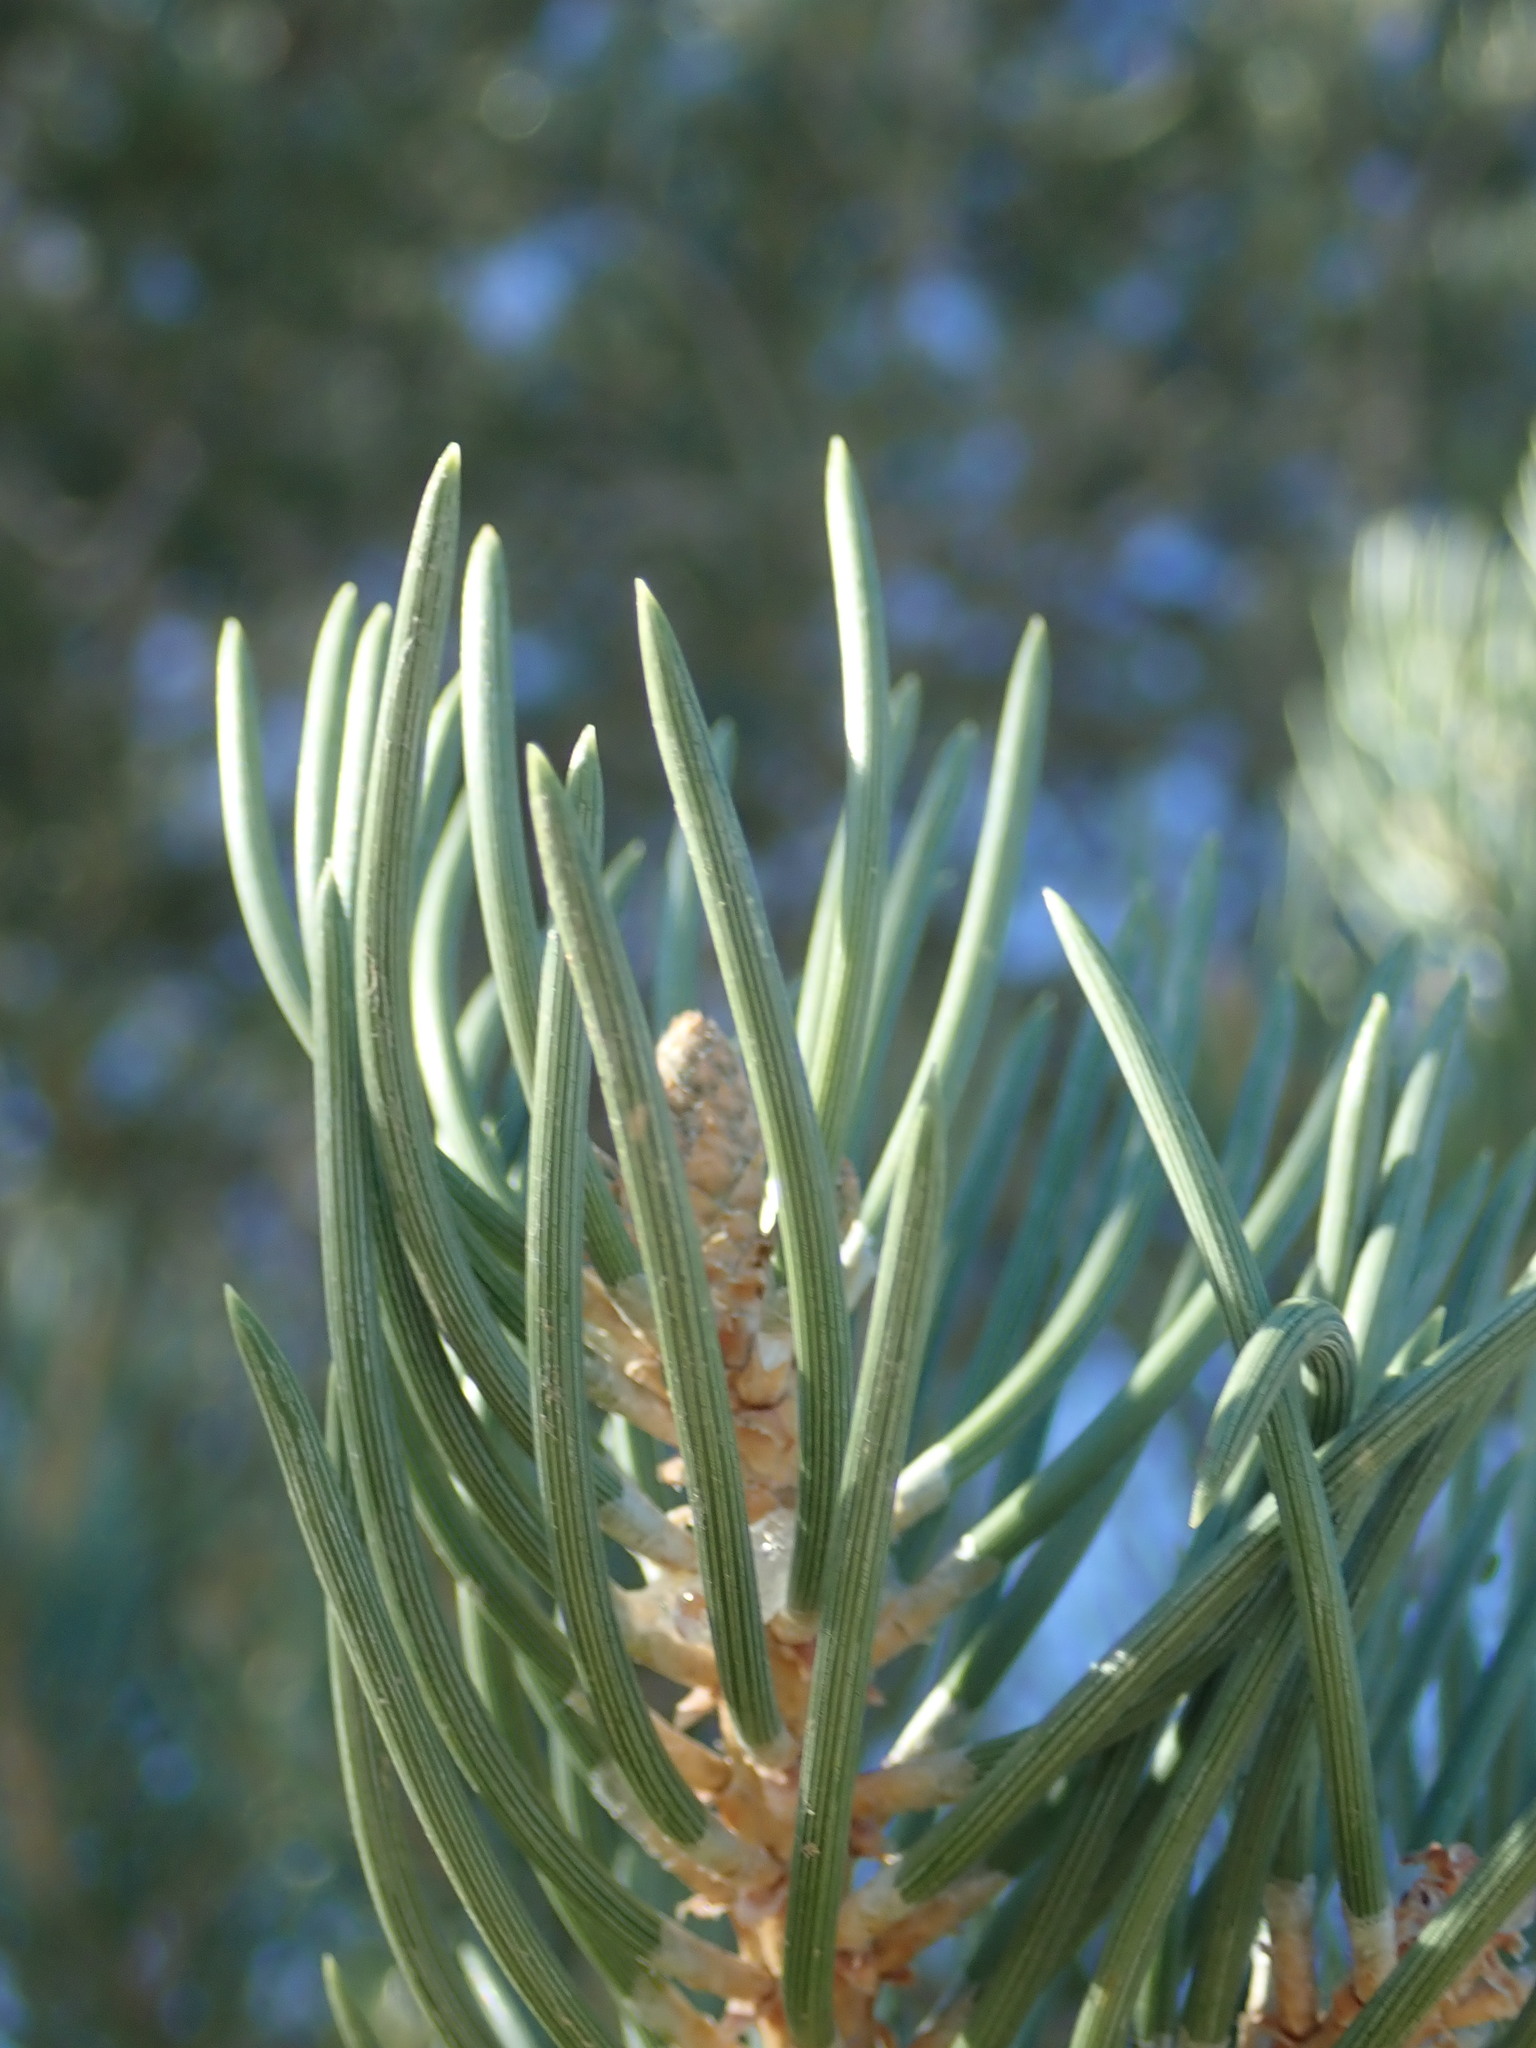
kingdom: Plantae
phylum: Tracheophyta
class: Pinopsida
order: Pinales
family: Pinaceae
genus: Pinus
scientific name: Pinus monophylla
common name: One-leaved nut pine
